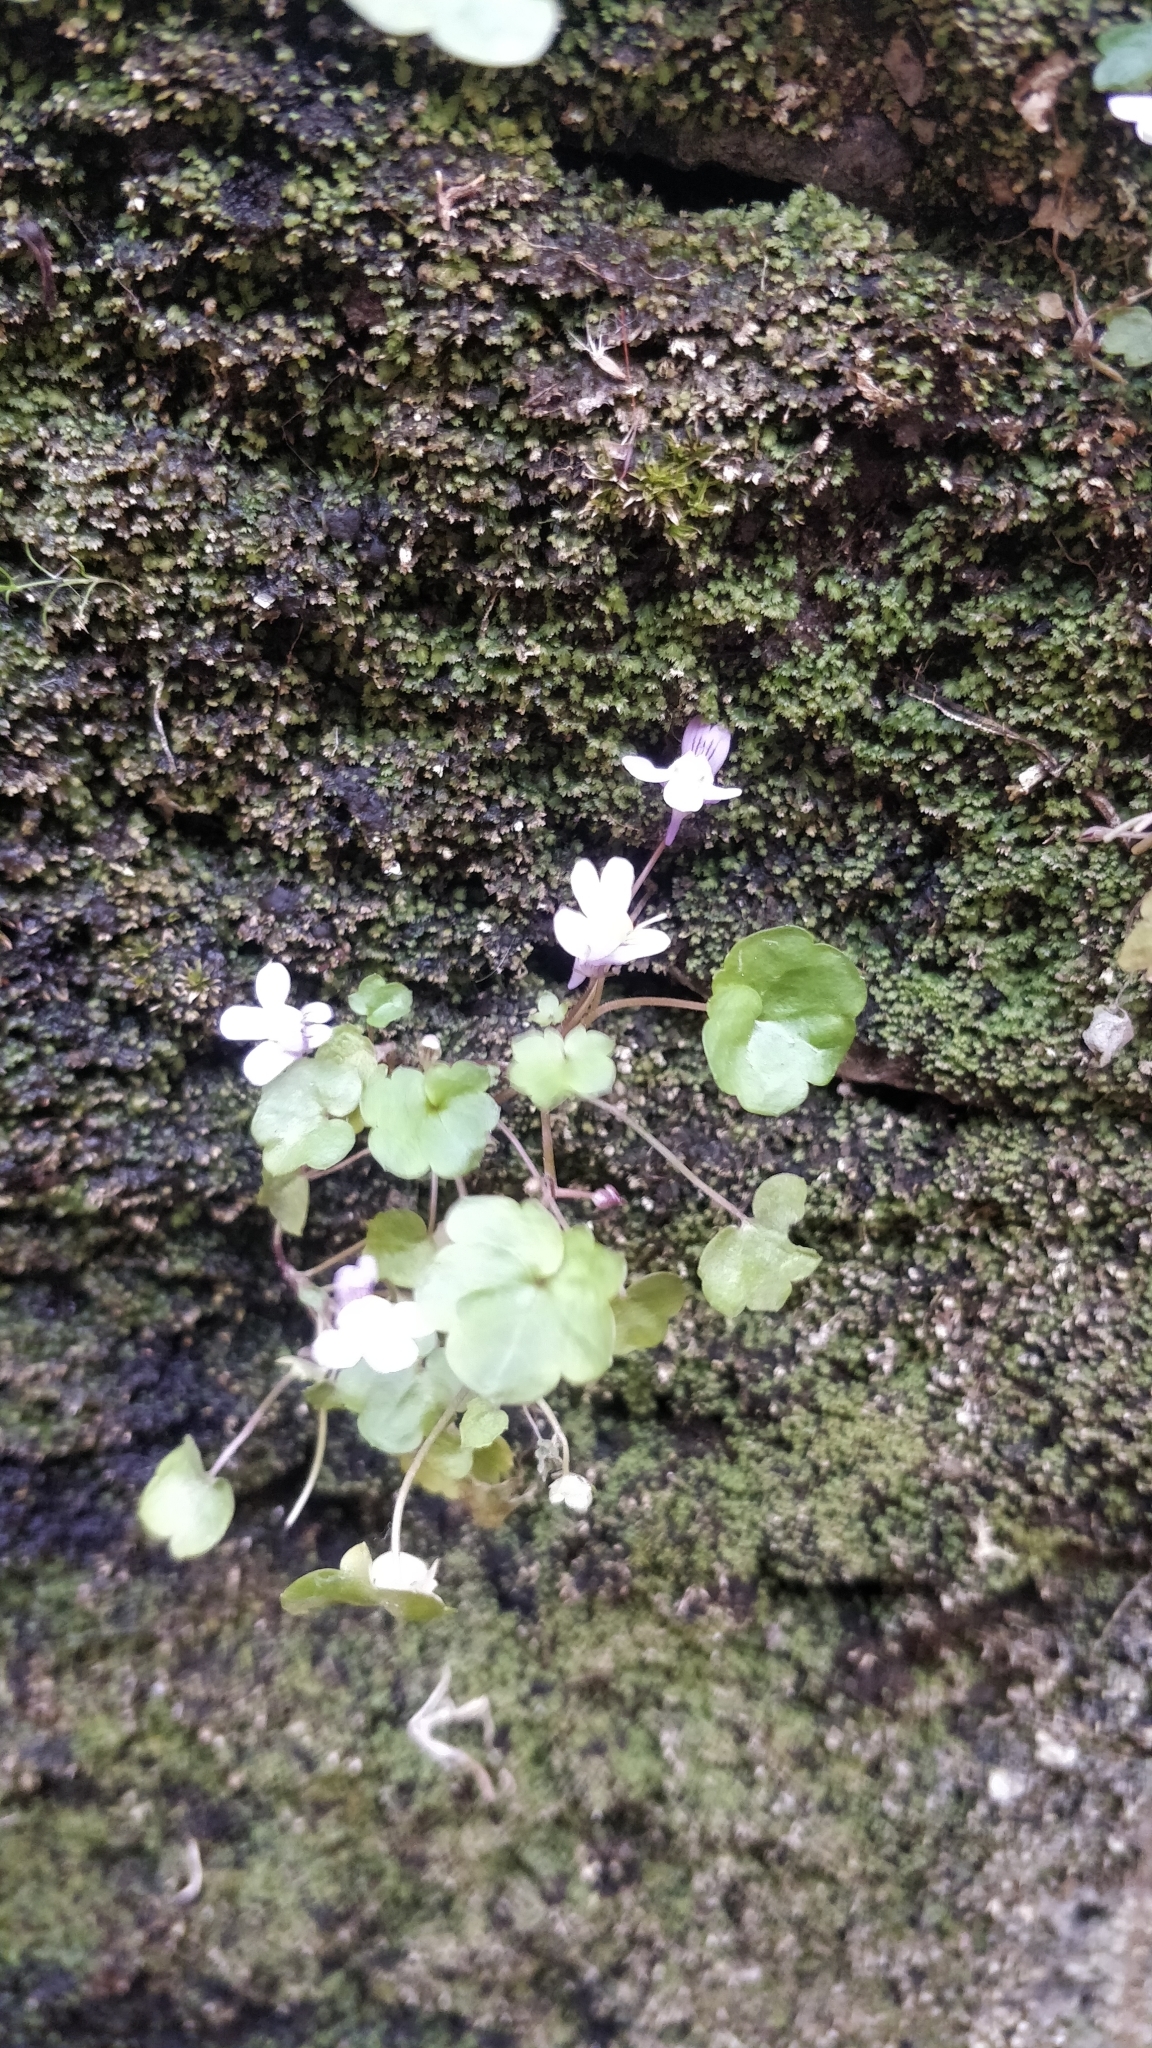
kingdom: Plantae
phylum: Tracheophyta
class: Magnoliopsida
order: Lamiales
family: Plantaginaceae
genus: Cymbalaria
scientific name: Cymbalaria muralis
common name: Ivy-leaved toadflax
